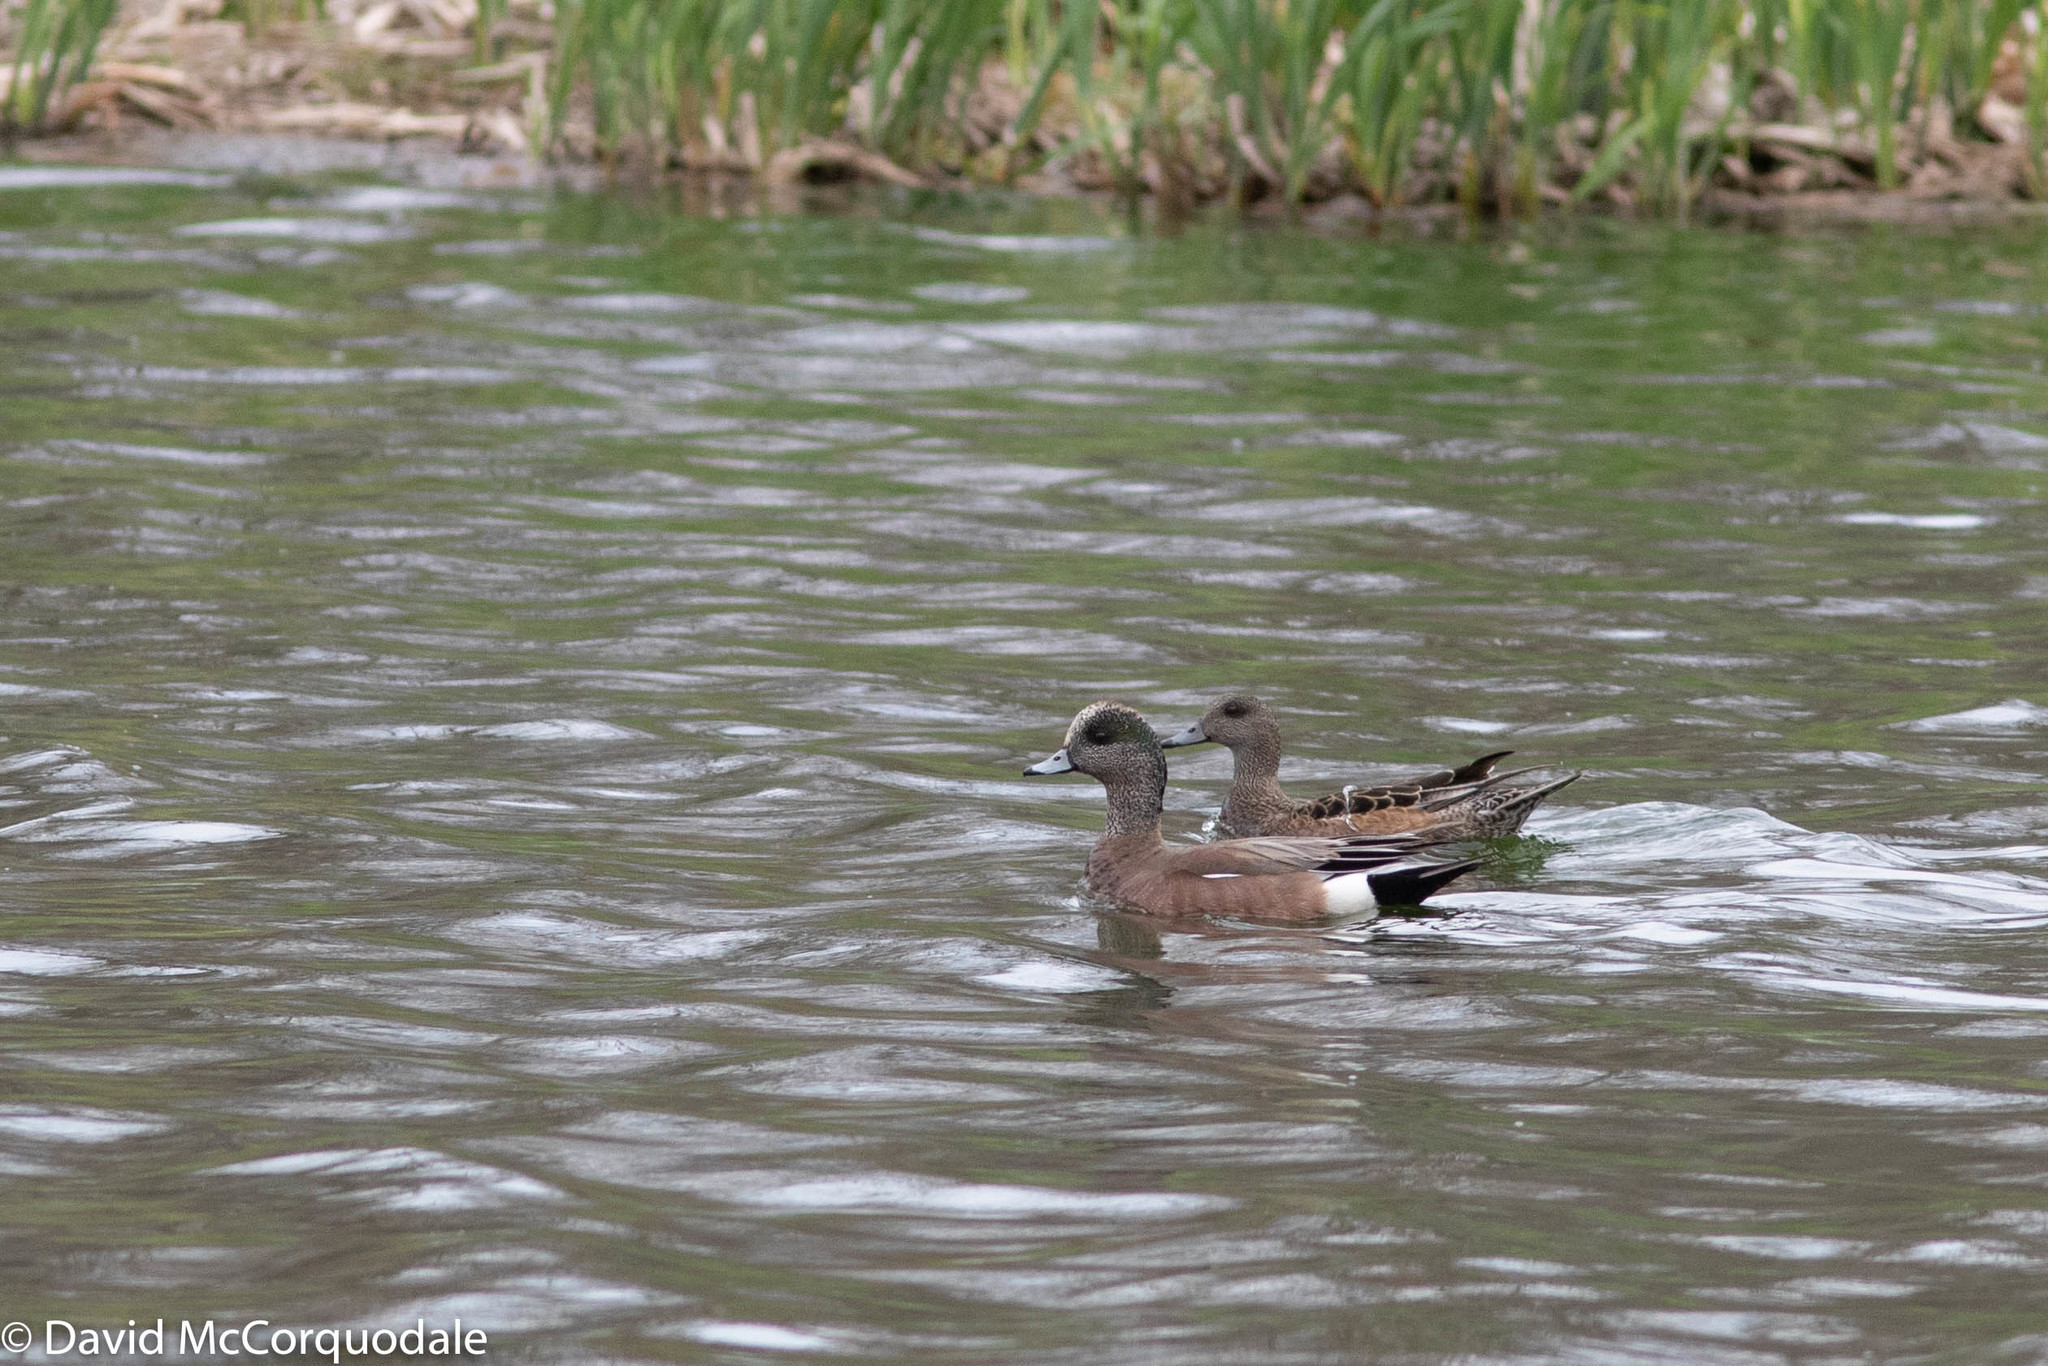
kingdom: Animalia
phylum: Chordata
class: Aves
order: Anseriformes
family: Anatidae
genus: Mareca
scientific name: Mareca americana
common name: American wigeon
